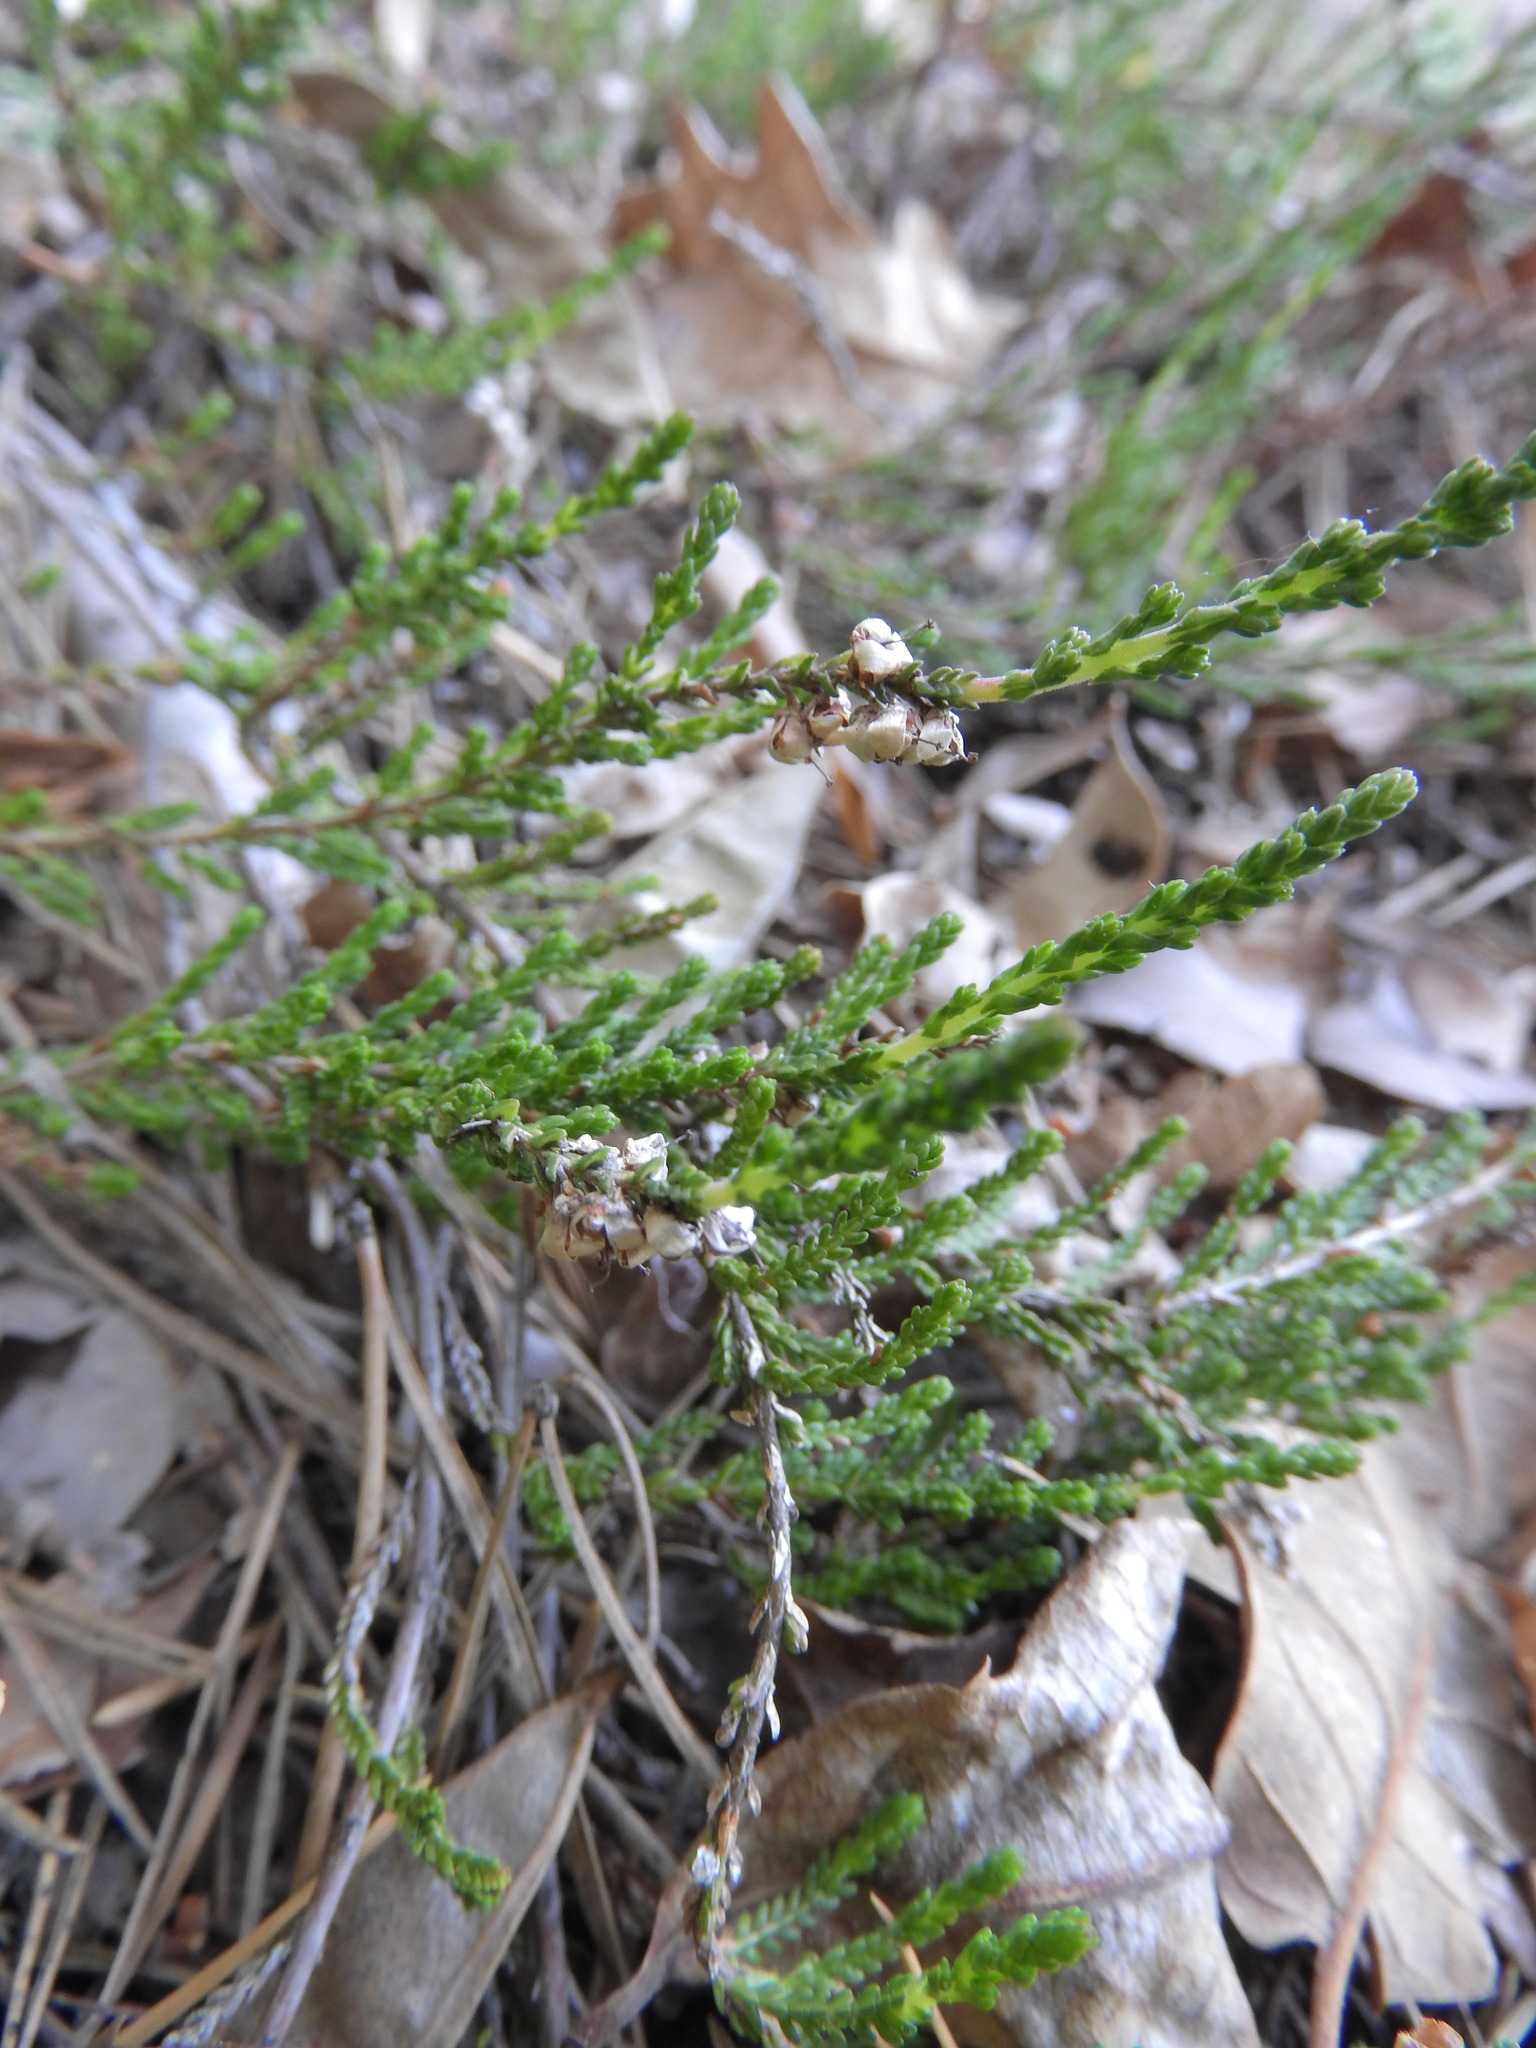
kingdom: Plantae
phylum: Tracheophyta
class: Magnoliopsida
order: Ericales
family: Ericaceae
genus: Calluna
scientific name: Calluna vulgaris
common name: Heather
